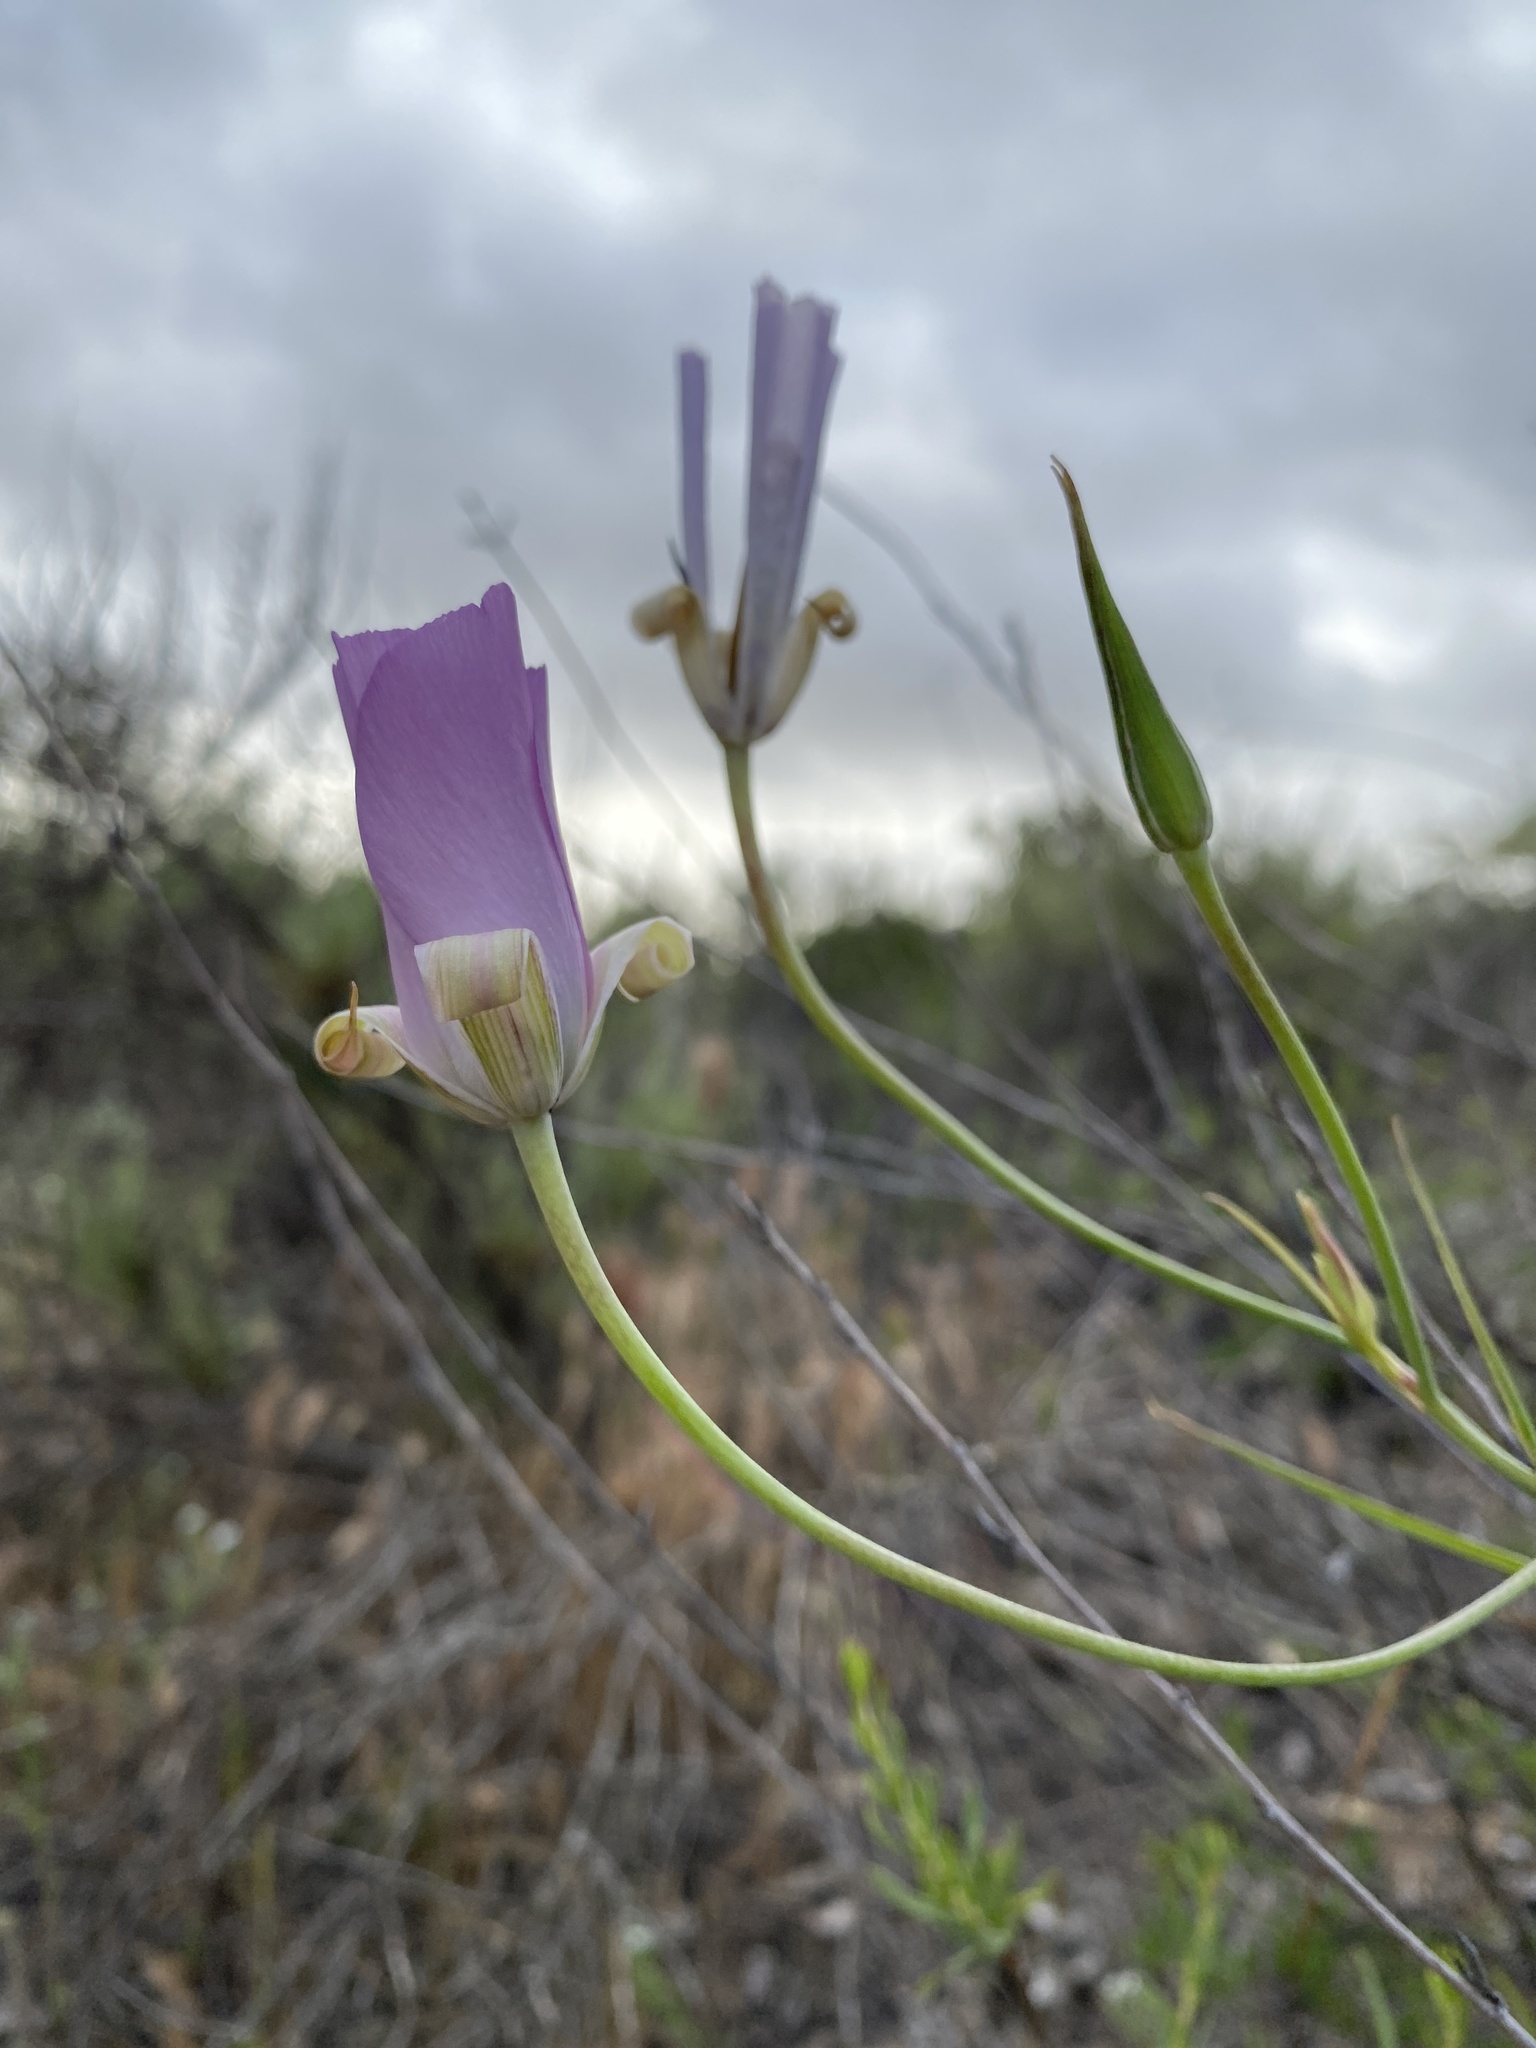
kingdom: Plantae
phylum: Tracheophyta
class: Liliopsida
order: Liliales
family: Liliaceae
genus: Calochortus
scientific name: Calochortus splendens
